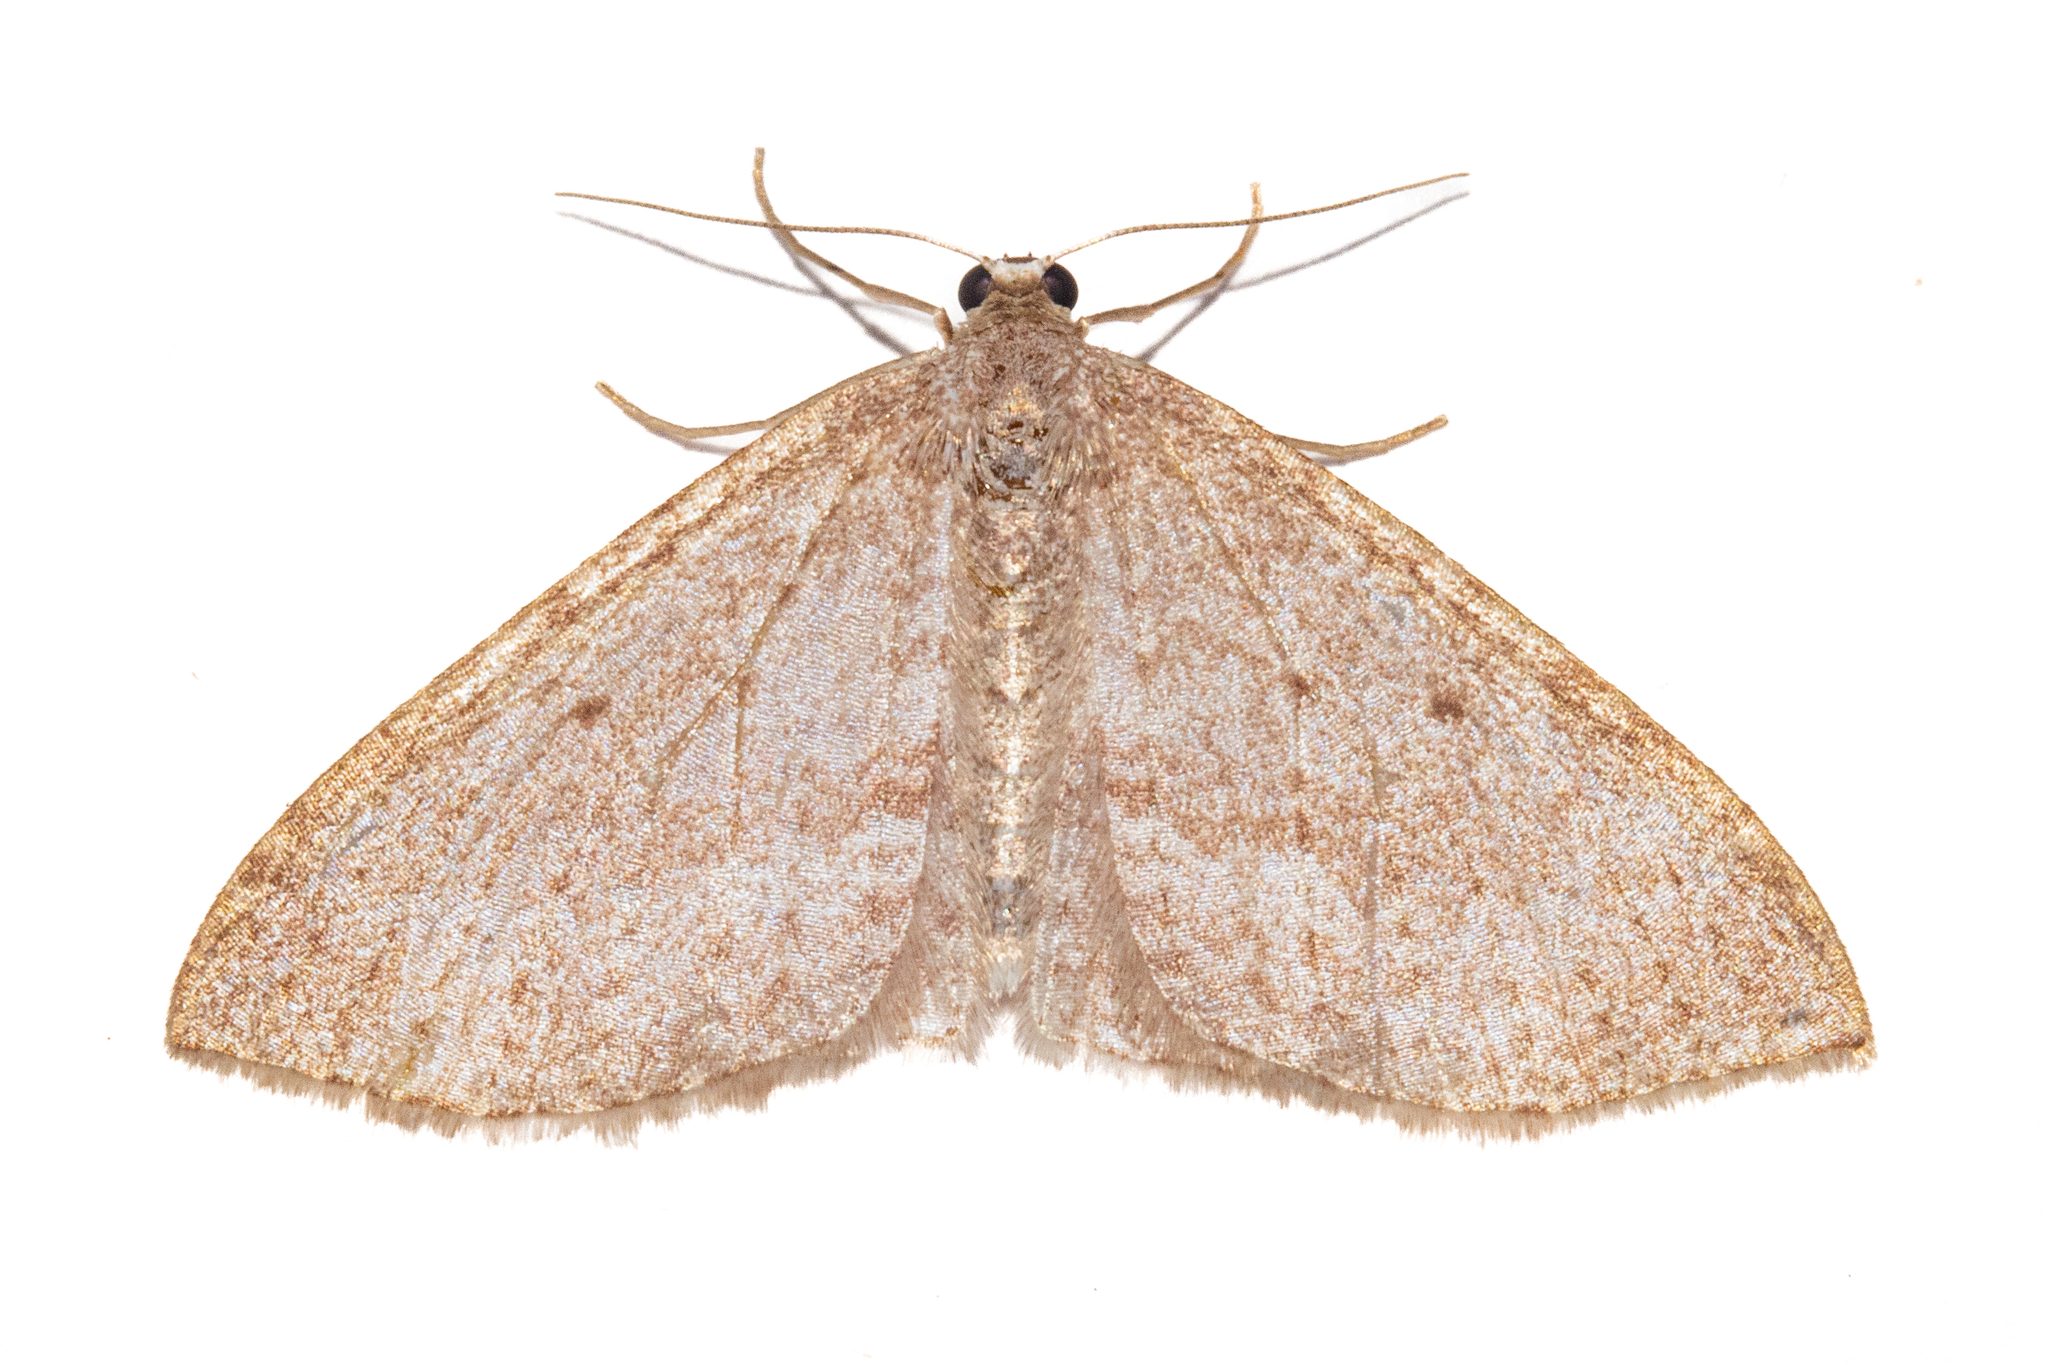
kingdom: Animalia
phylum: Arthropoda
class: Insecta
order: Lepidoptera
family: Geometridae
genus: Poecilasthena
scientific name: Poecilasthena schistaria
